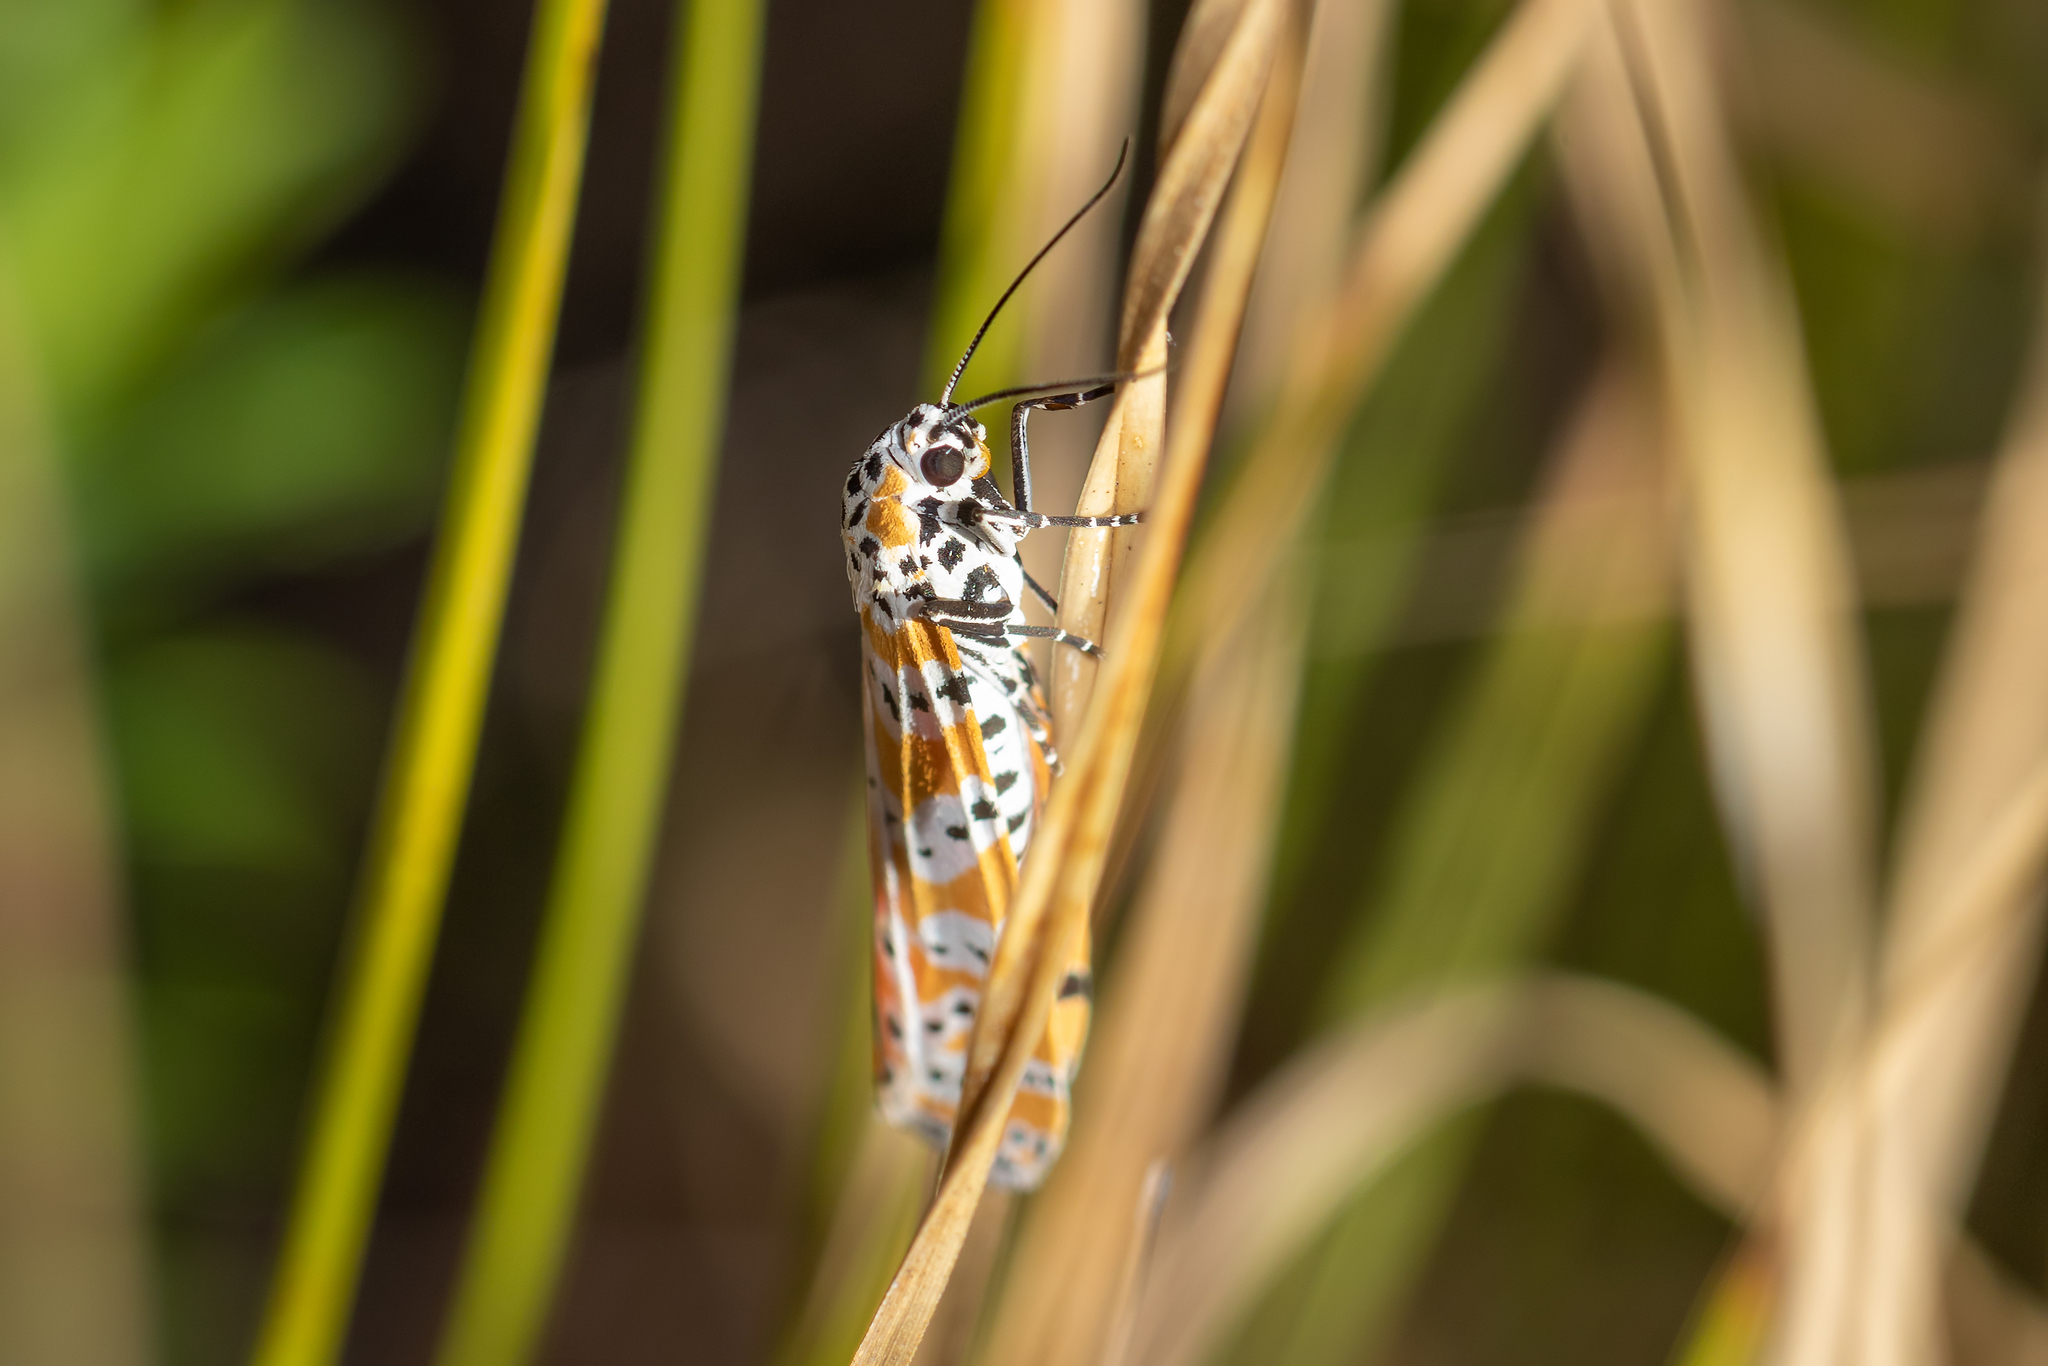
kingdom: Animalia
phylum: Arthropoda
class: Insecta
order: Lepidoptera
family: Erebidae
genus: Utetheisa
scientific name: Utetheisa ornatrix
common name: Beautiful utetheisa
